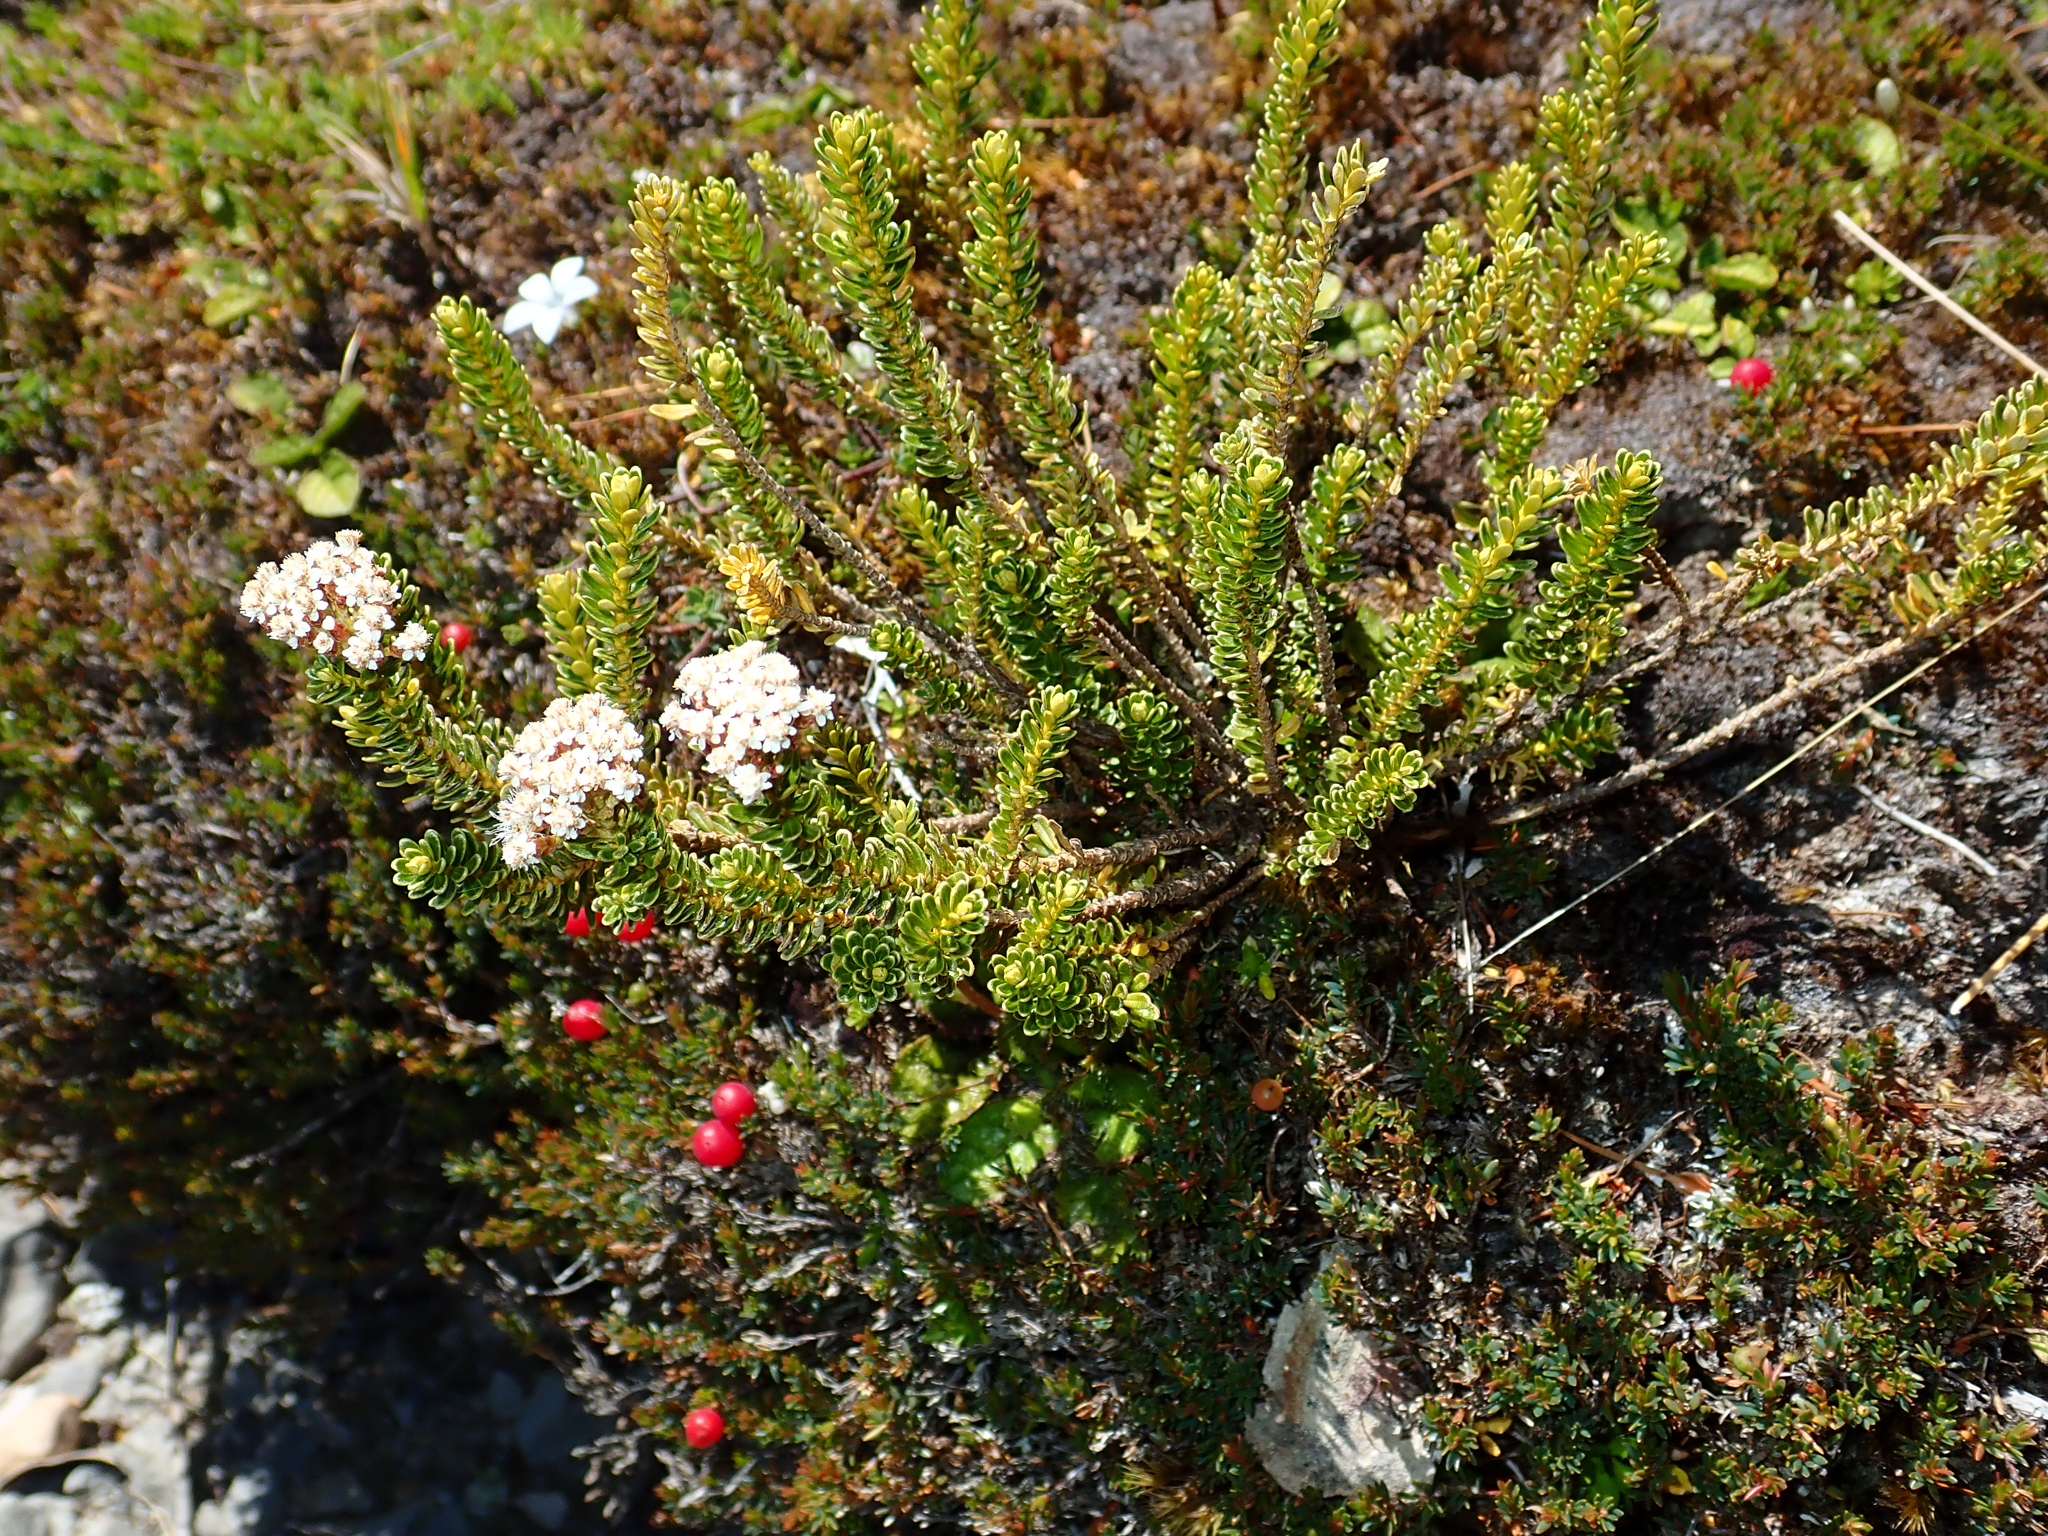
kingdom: Plantae
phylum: Tracheophyta
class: Magnoliopsida
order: Asterales
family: Asteraceae
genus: Ozothamnus
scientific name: Ozothamnus leptophyllus
